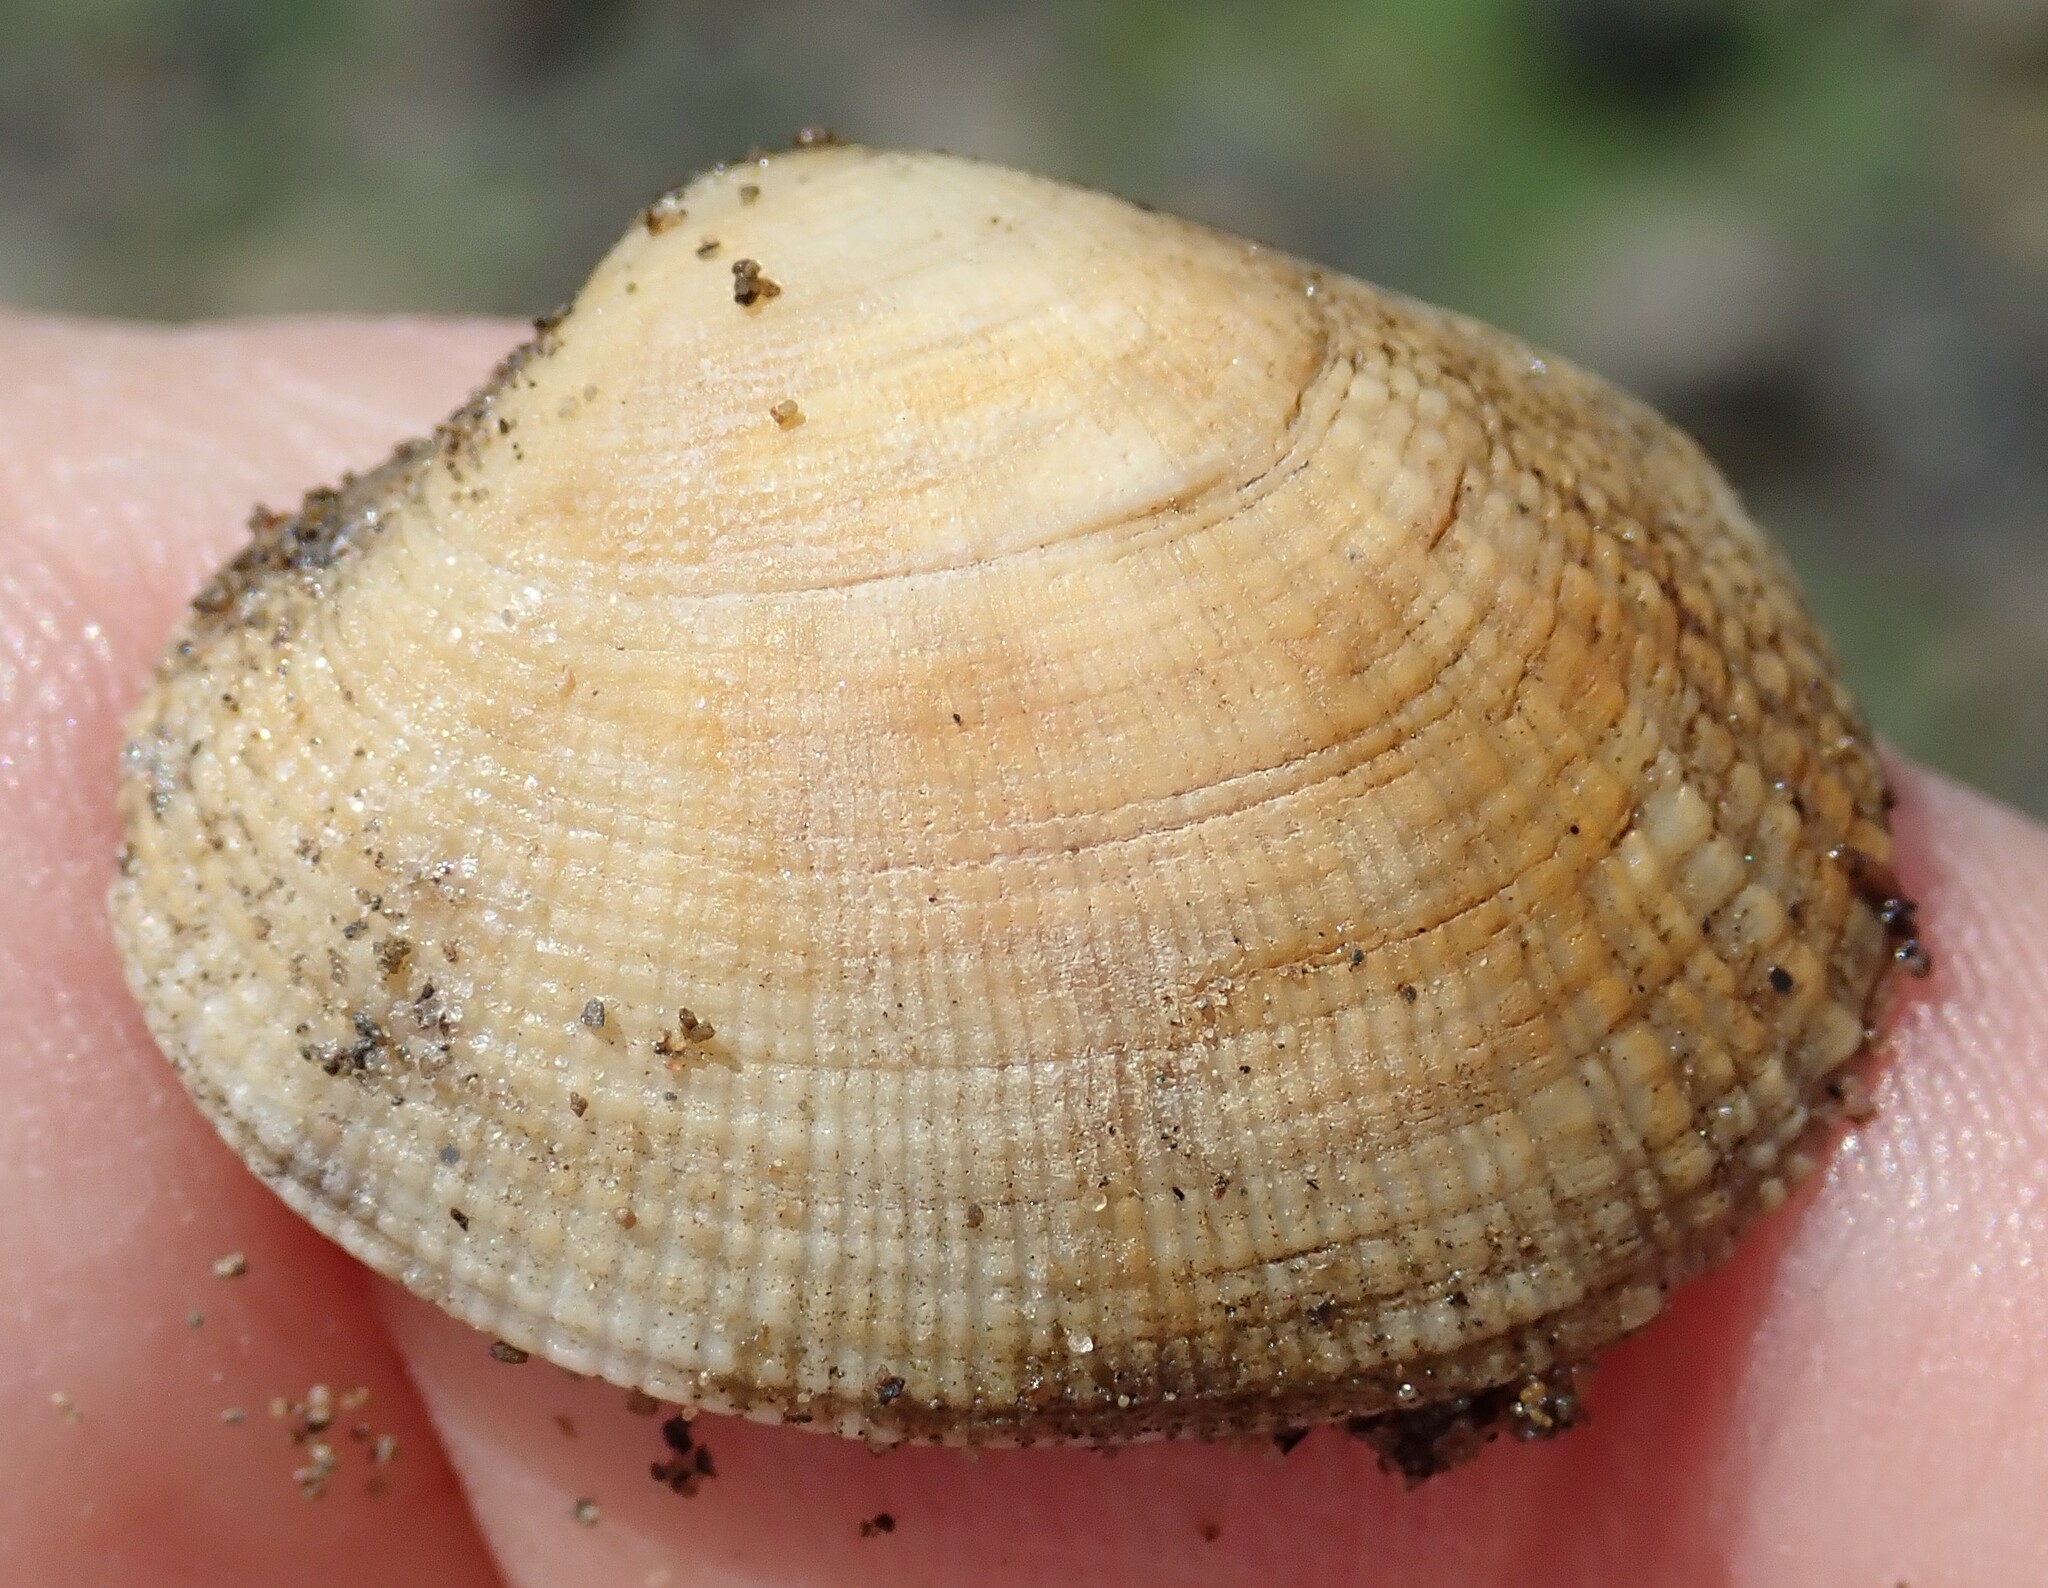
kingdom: Animalia
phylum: Mollusca
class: Bivalvia
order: Venerida
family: Veneridae
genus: Ruditapes
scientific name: Ruditapes philippinarum
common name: Manila clam
